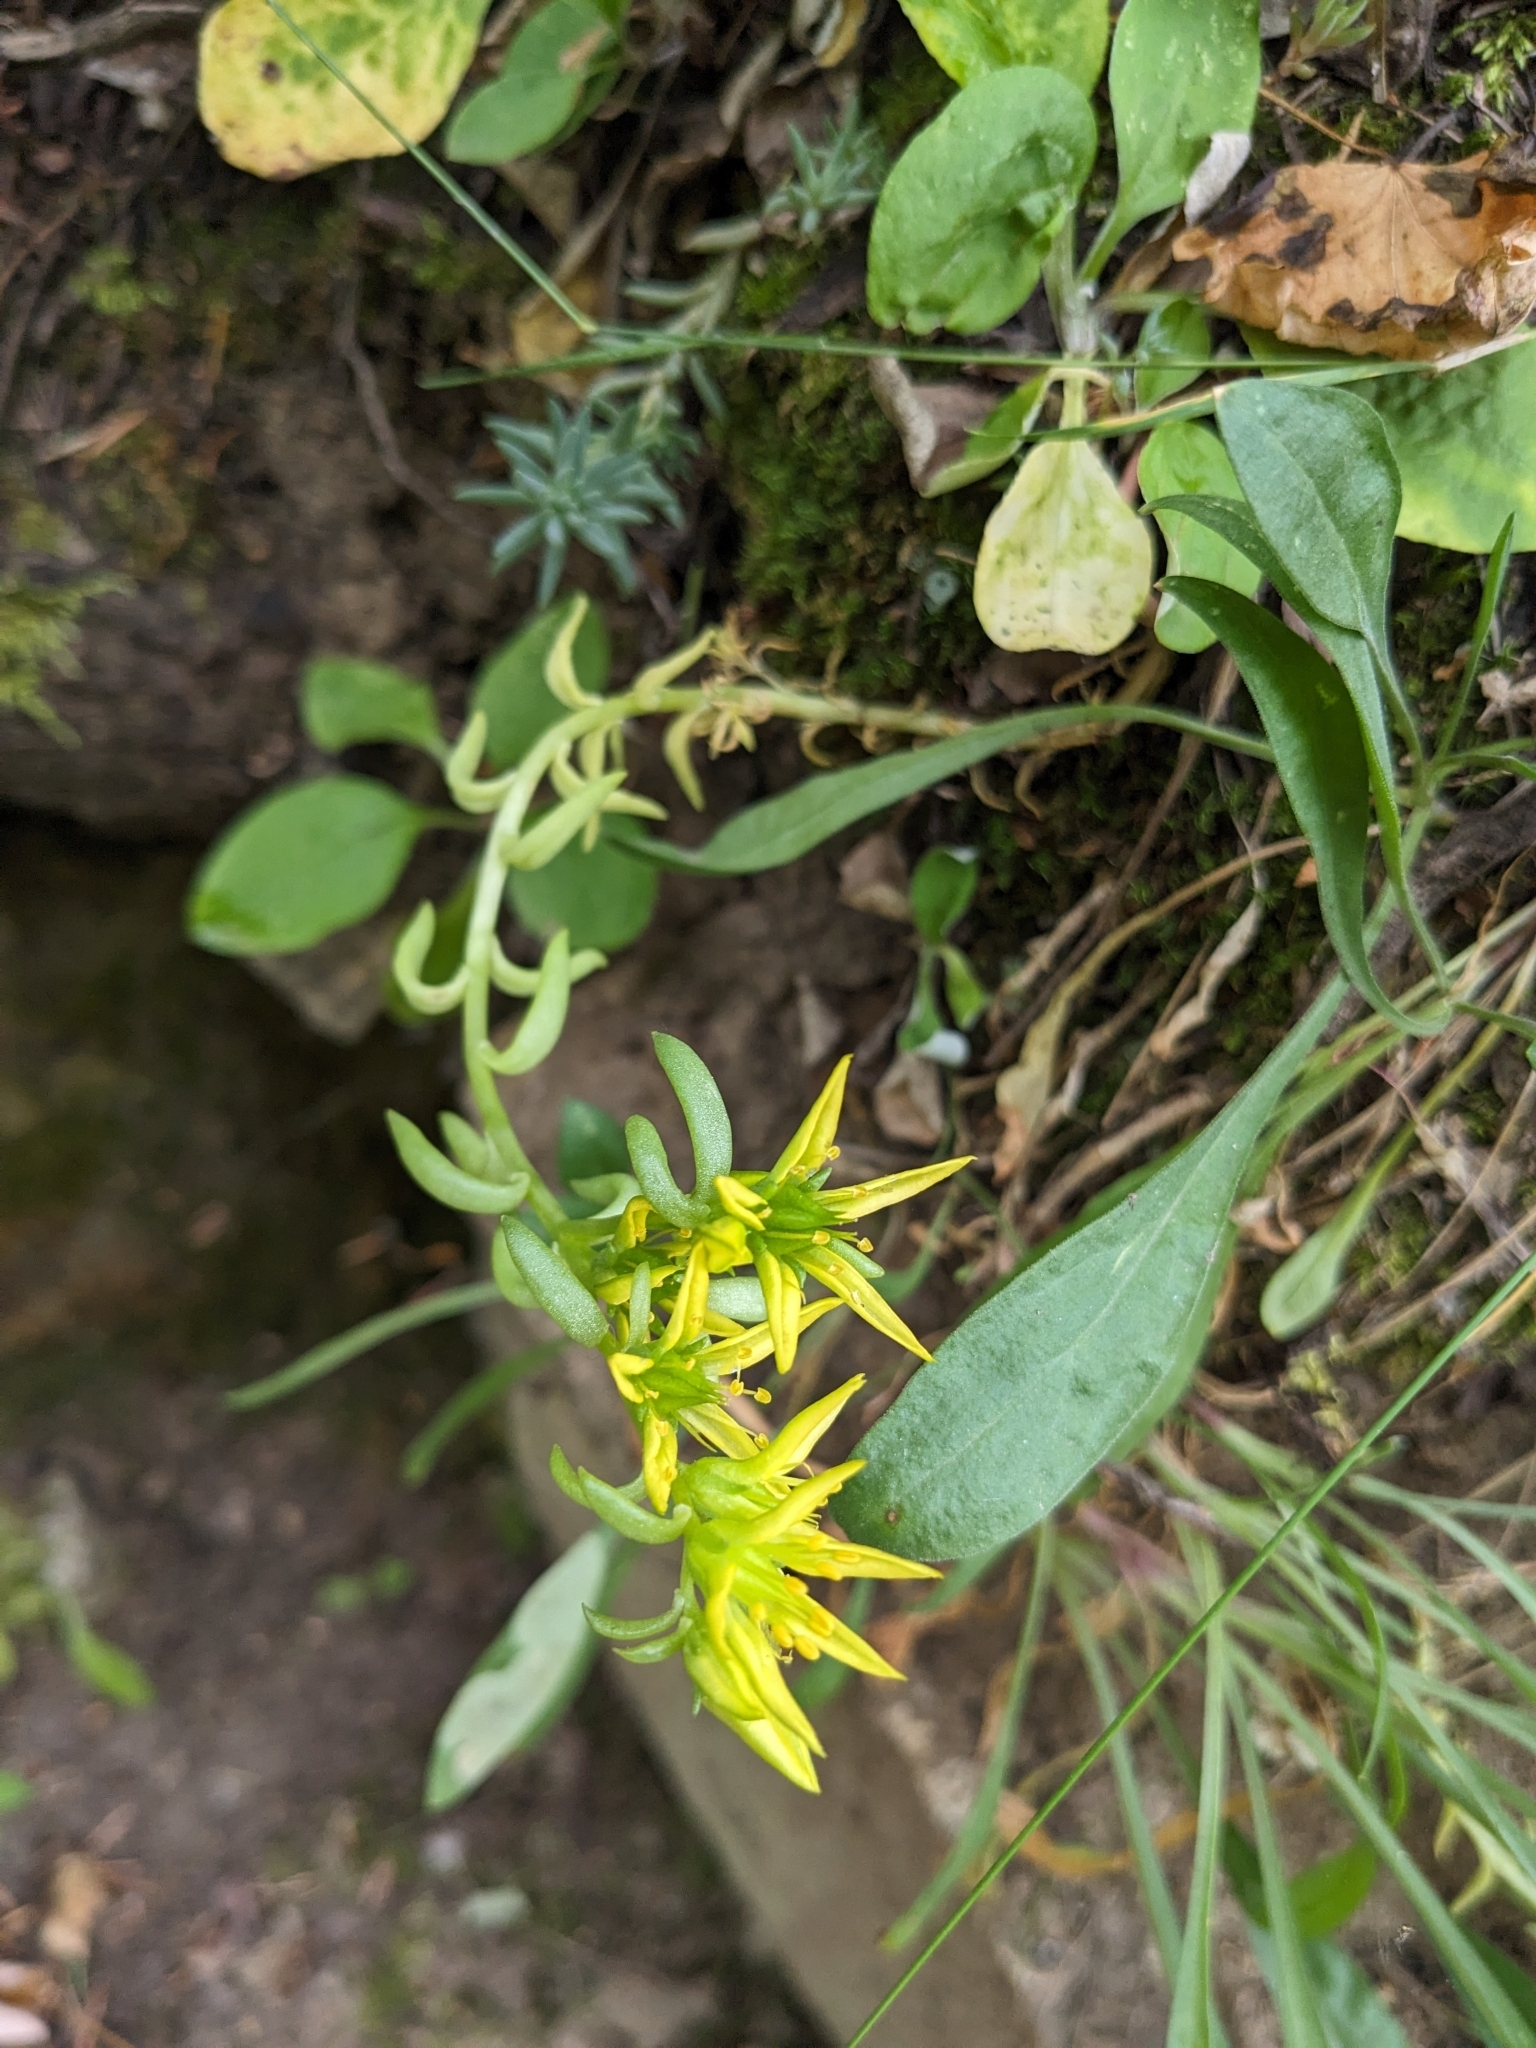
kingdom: Plantae
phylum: Tracheophyta
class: Magnoliopsida
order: Saxifragales
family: Crassulaceae
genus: Sedum
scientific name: Sedum lanceolatum
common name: Common stonecrop
